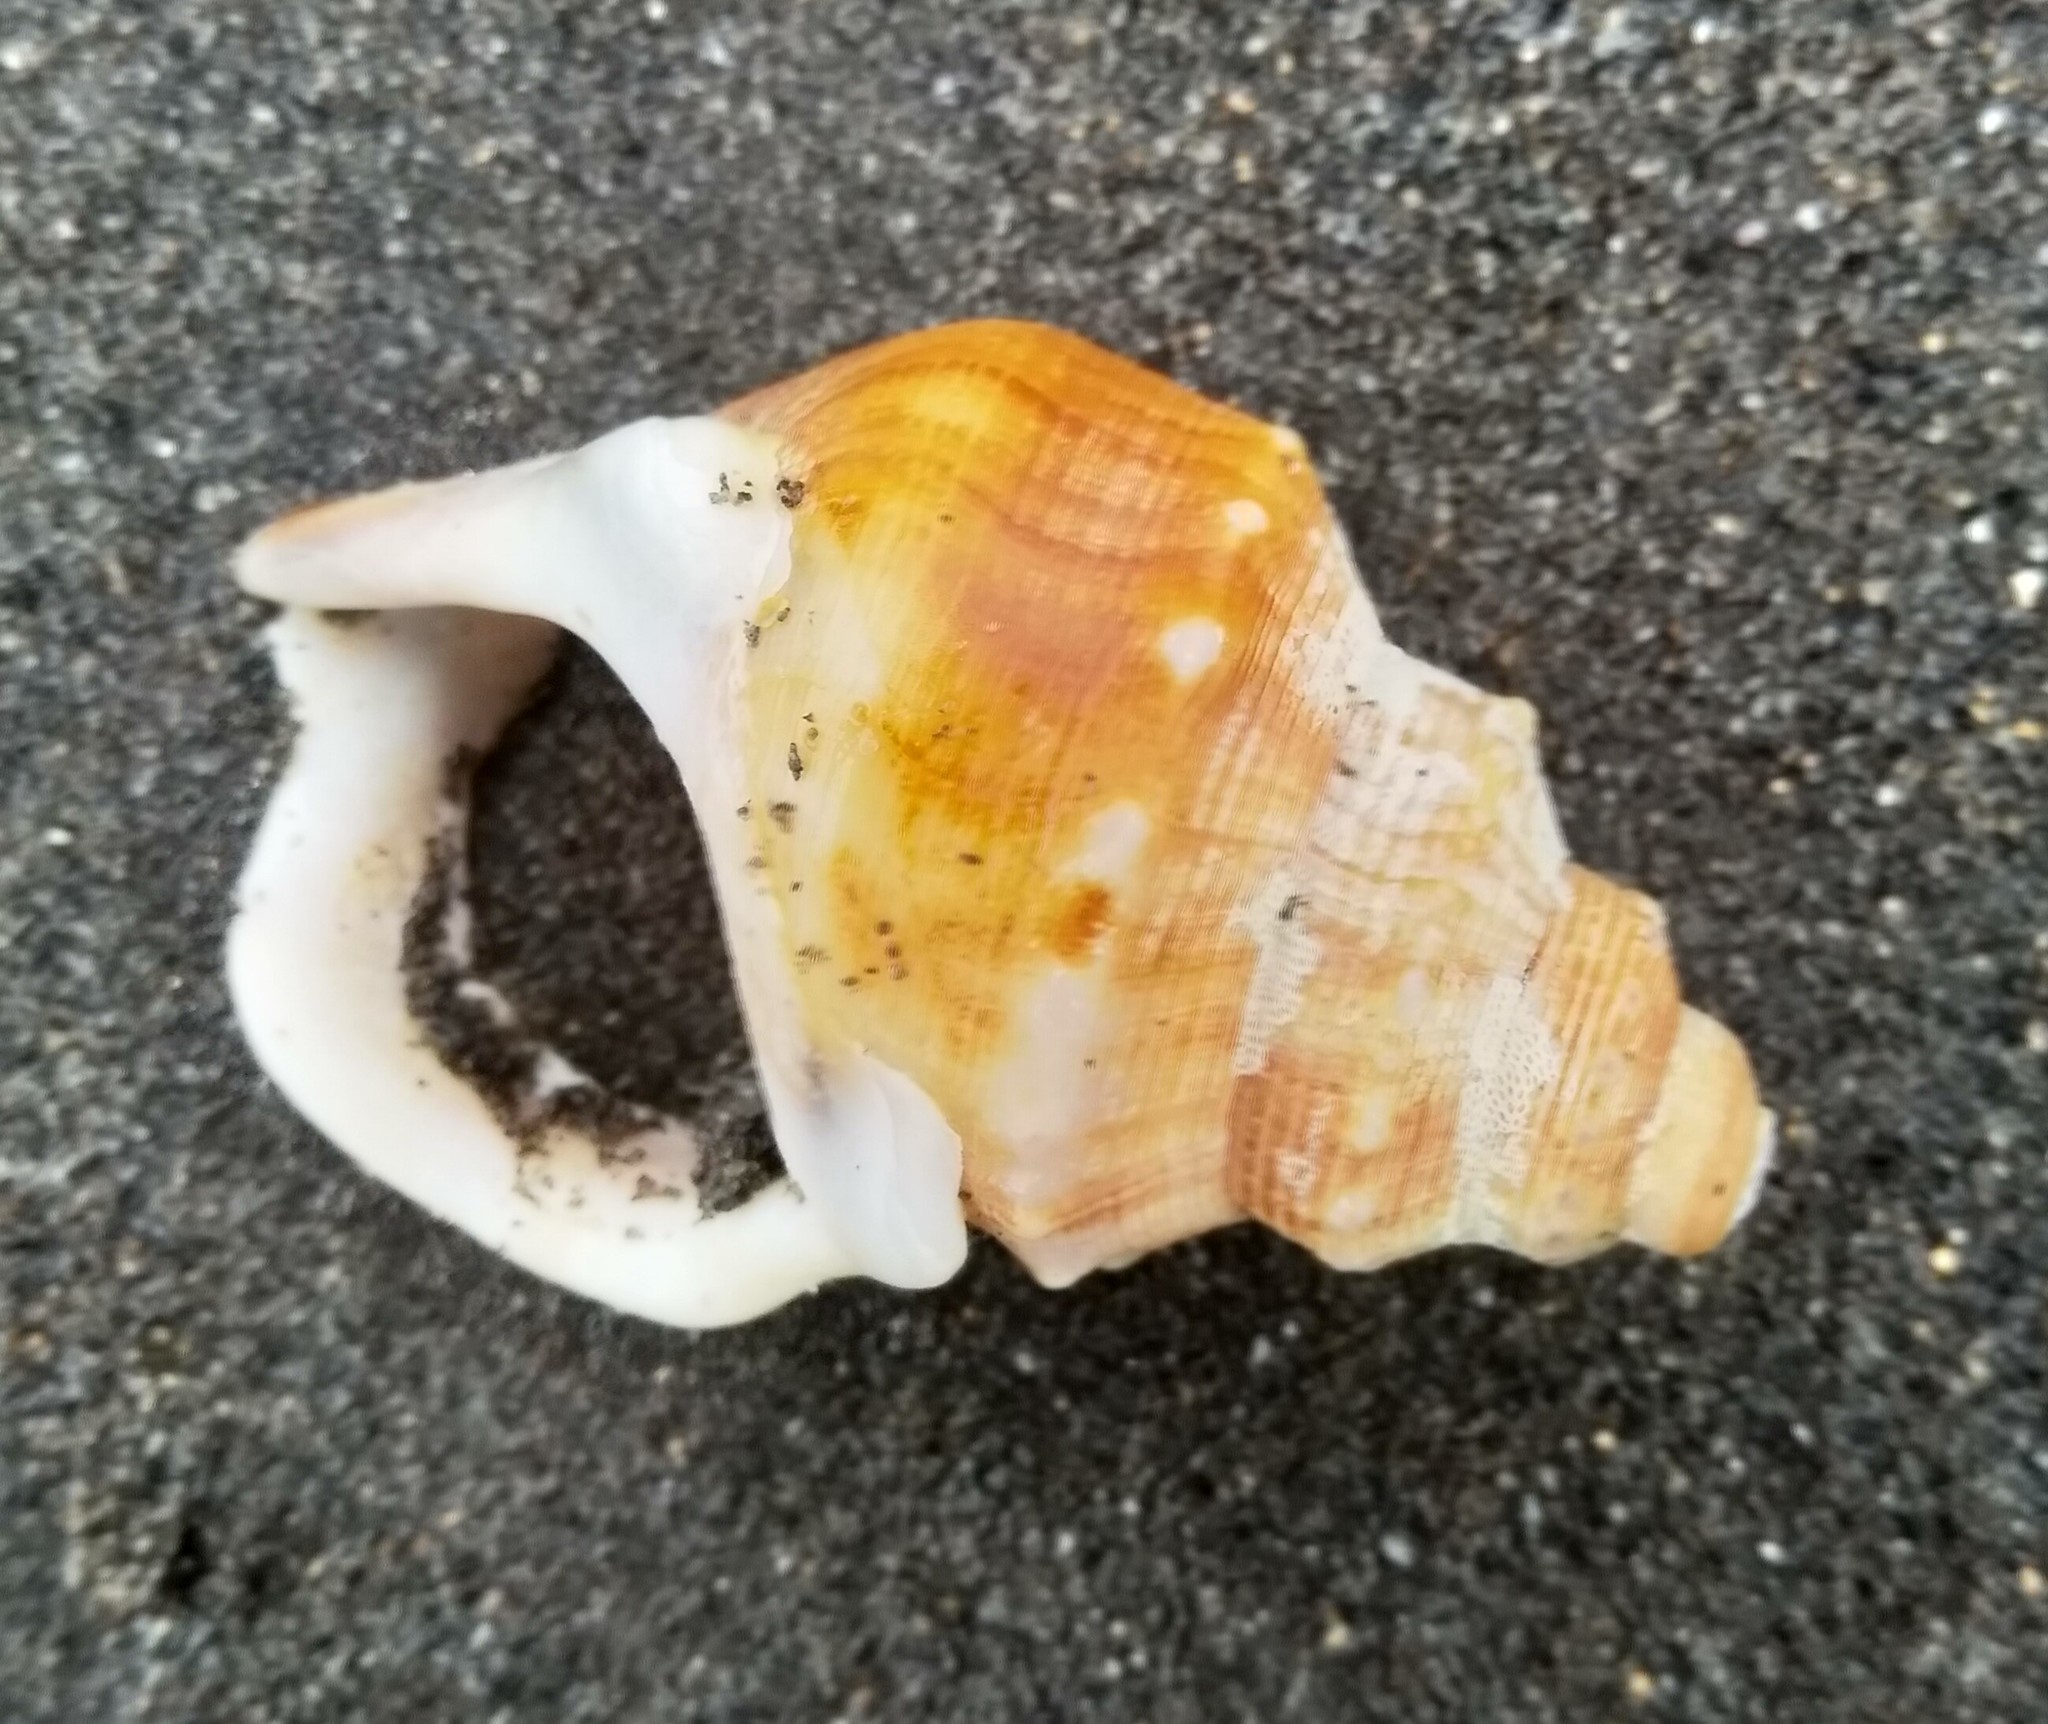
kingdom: Animalia
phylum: Mollusca
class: Gastropoda
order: Littorinimorpha
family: Struthiolariidae
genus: Struthiolaria
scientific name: Struthiolaria papulosa
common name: Large ostrich foot
